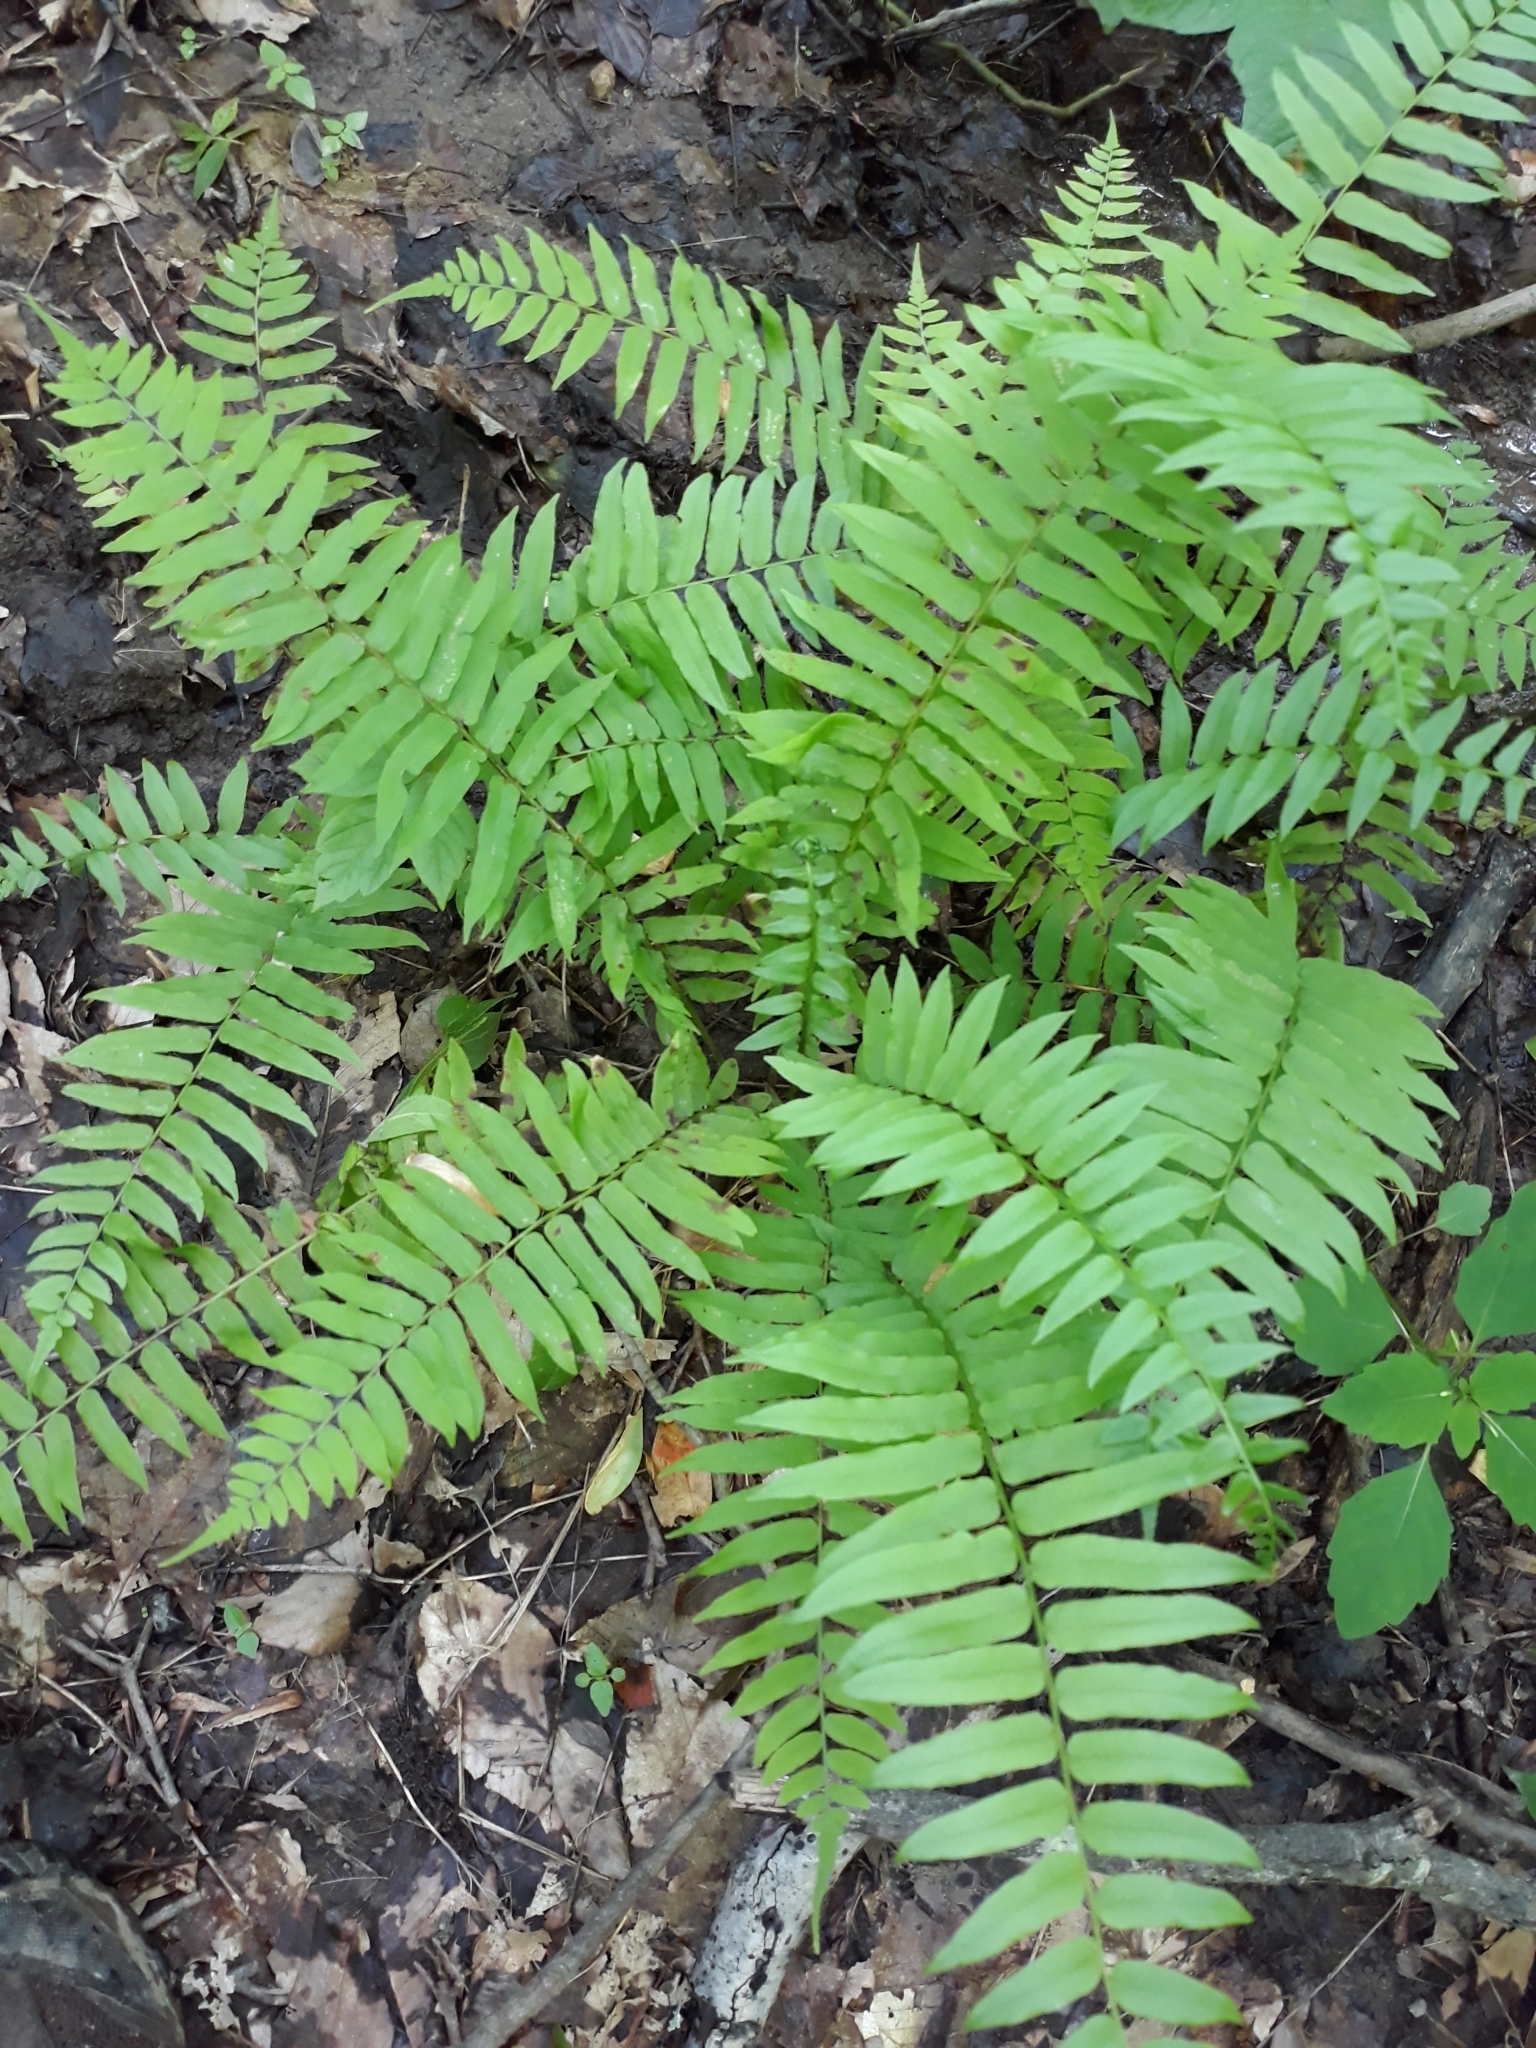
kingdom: Plantae
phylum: Tracheophyta
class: Polypodiopsida
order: Polypodiales
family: Diplaziopsidaceae
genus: Homalosorus
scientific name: Homalosorus pycnocarpos
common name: Glade fern
